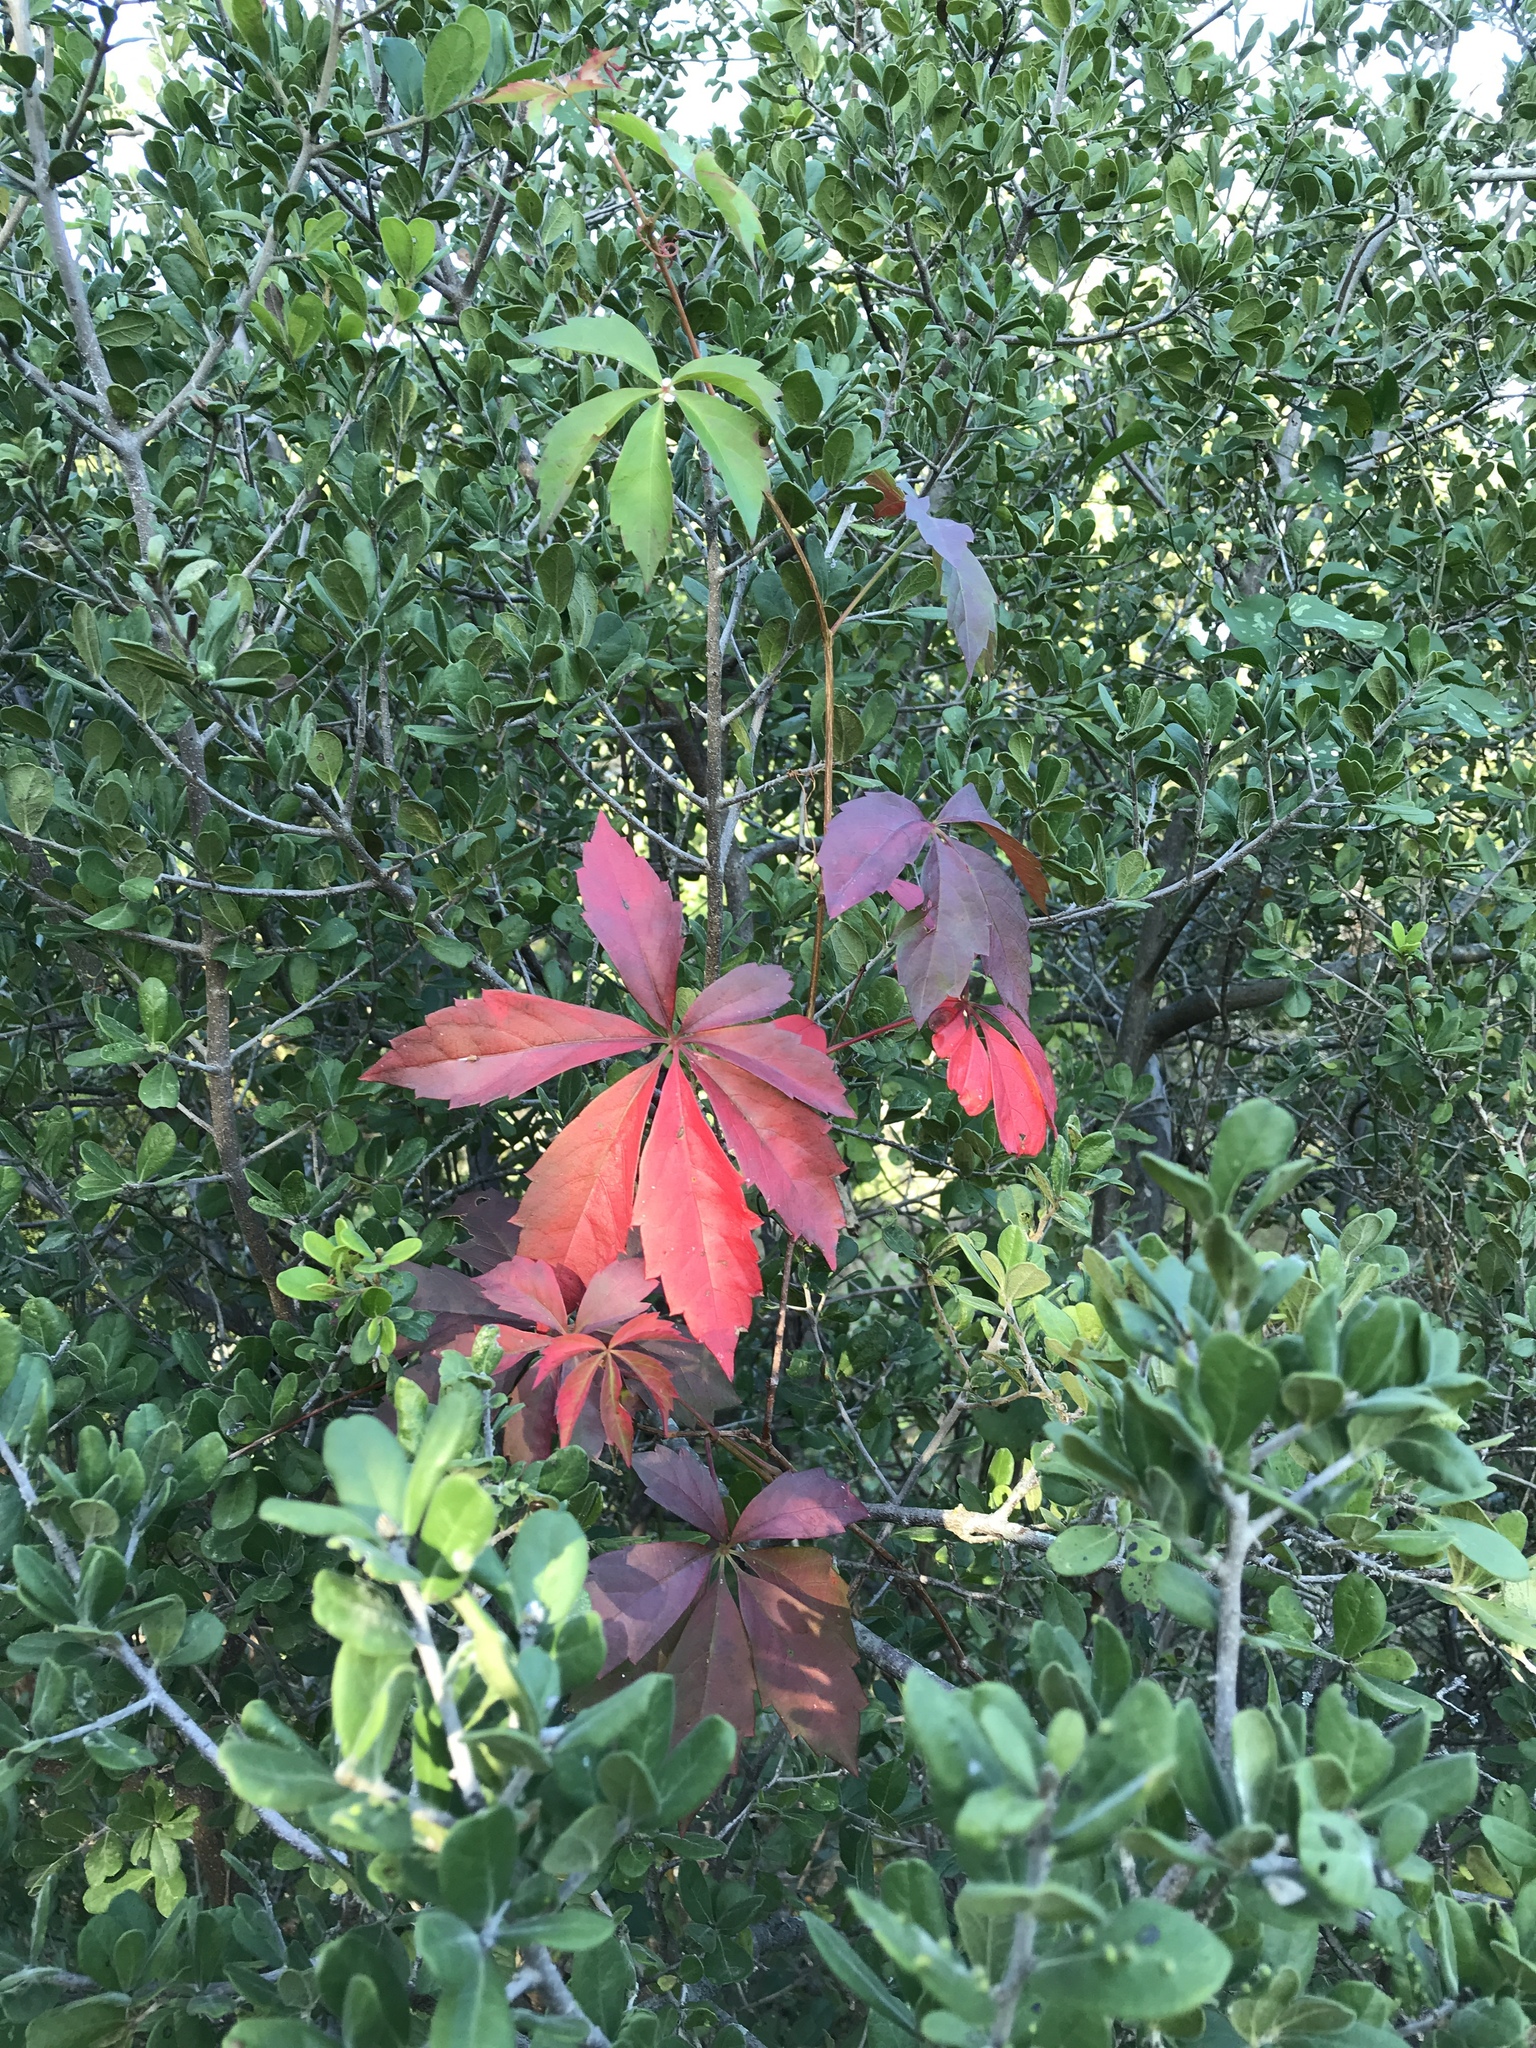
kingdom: Plantae
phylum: Tracheophyta
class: Magnoliopsida
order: Vitales
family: Vitaceae
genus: Parthenocissus
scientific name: Parthenocissus heptaphylla
